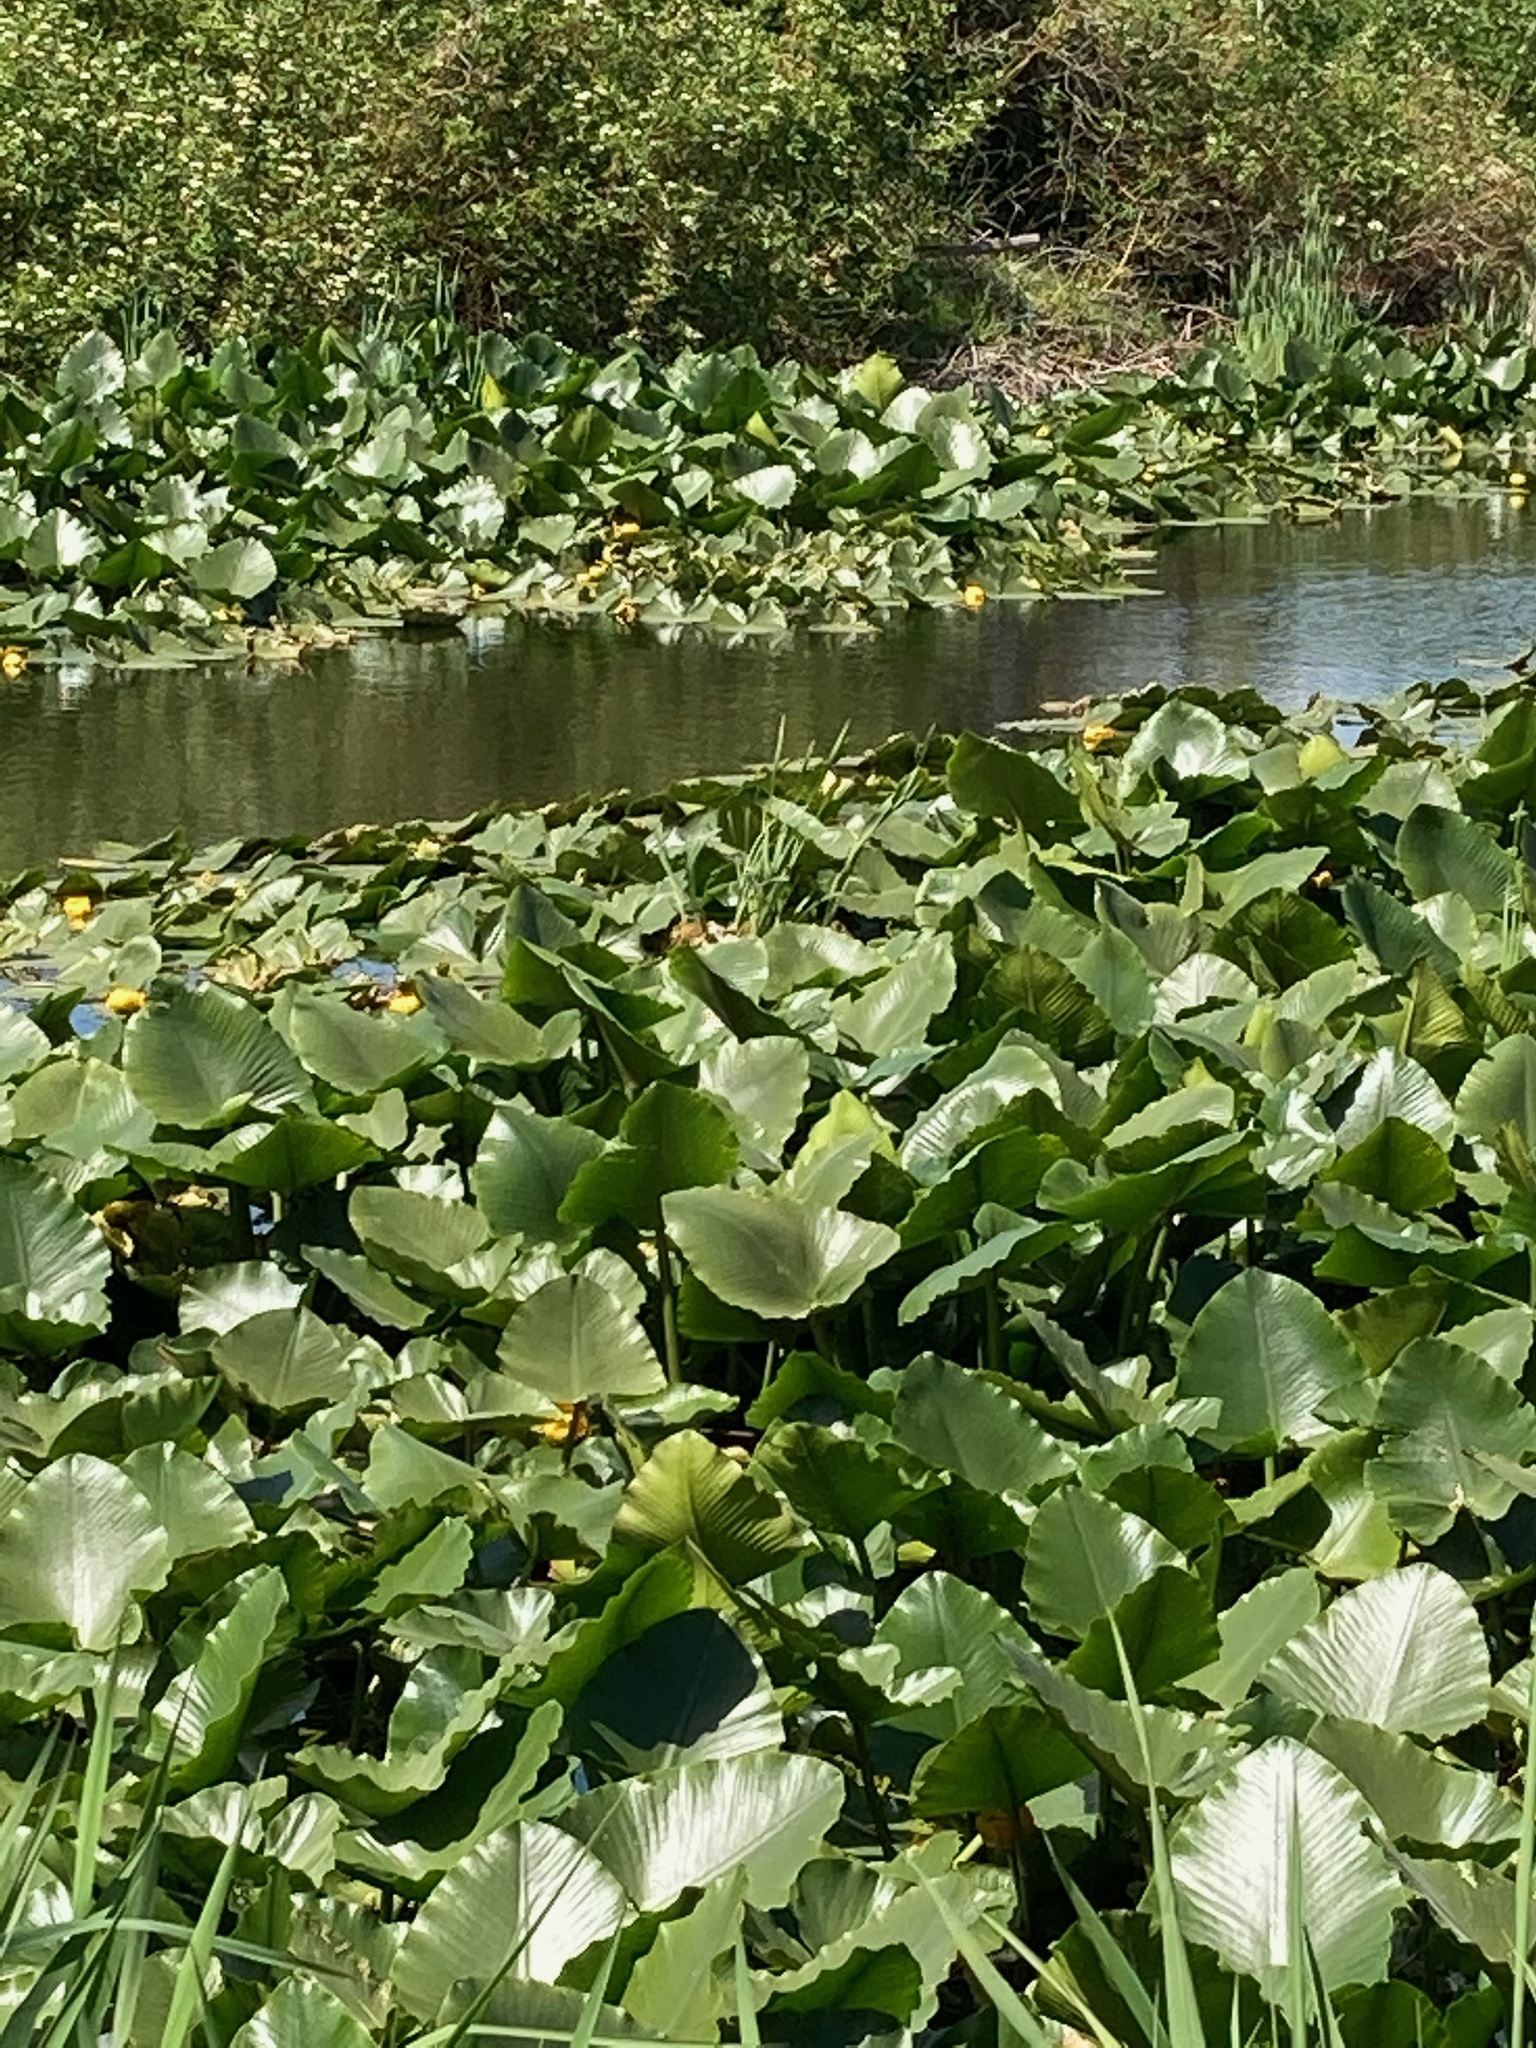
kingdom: Plantae
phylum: Tracheophyta
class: Magnoliopsida
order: Nymphaeales
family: Nymphaeaceae
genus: Nuphar
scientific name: Nuphar polysepala
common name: Rocky mountain cow-lily
